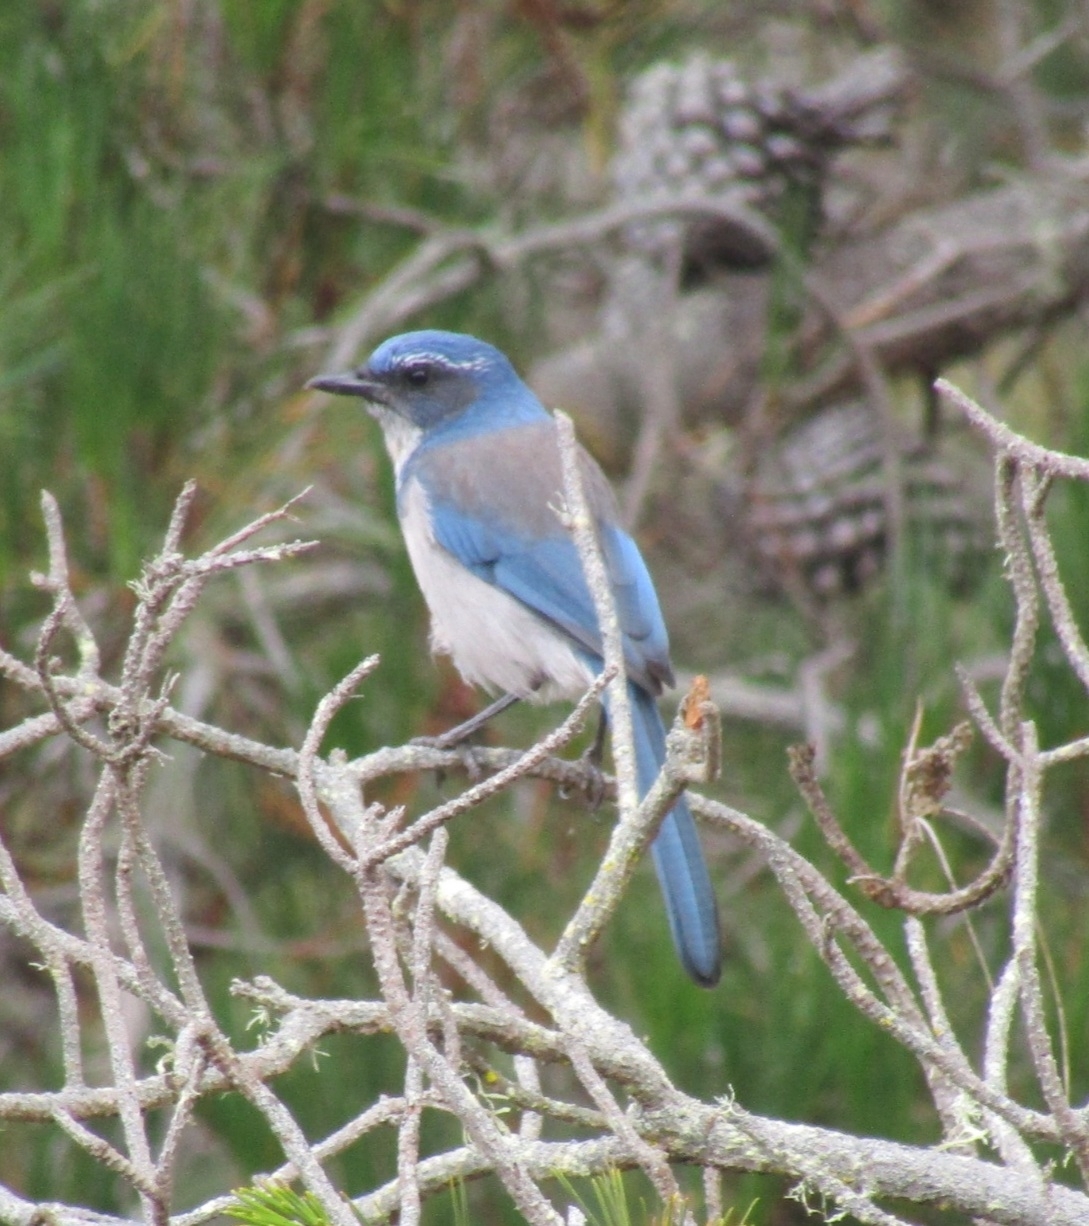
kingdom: Animalia
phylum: Chordata
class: Aves
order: Passeriformes
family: Corvidae
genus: Aphelocoma
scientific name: Aphelocoma californica
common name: California scrub-jay
